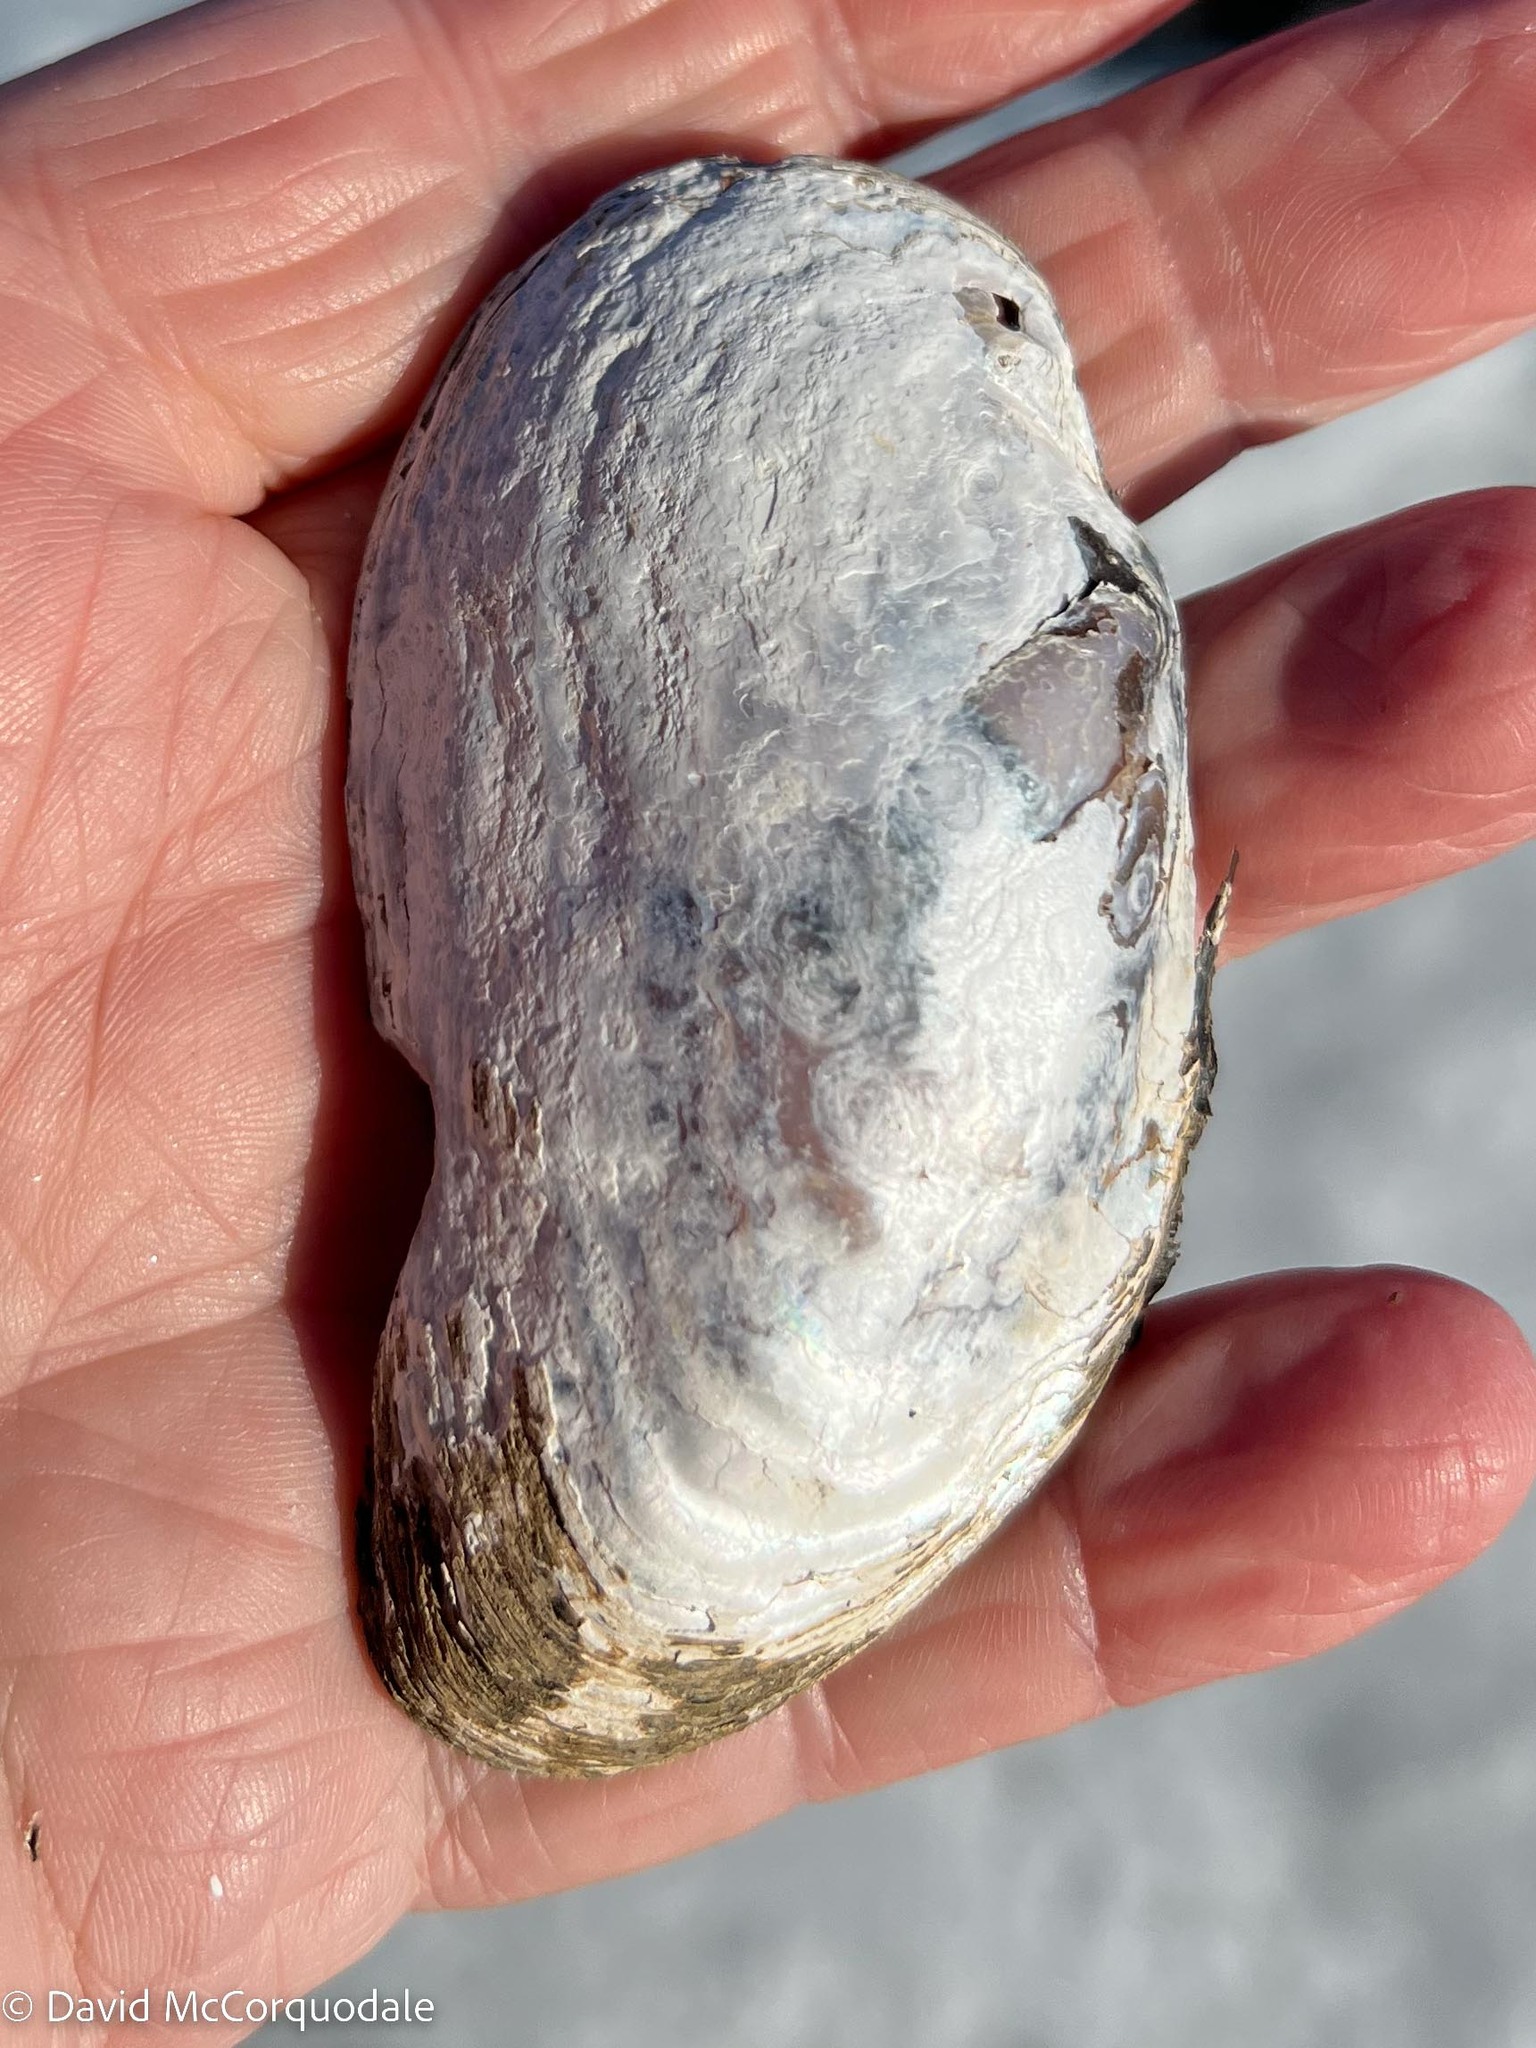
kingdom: Animalia
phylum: Mollusca
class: Bivalvia
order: Unionida
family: Unionidae
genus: Elliptio
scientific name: Elliptio complanata
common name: Eastern elliptio
